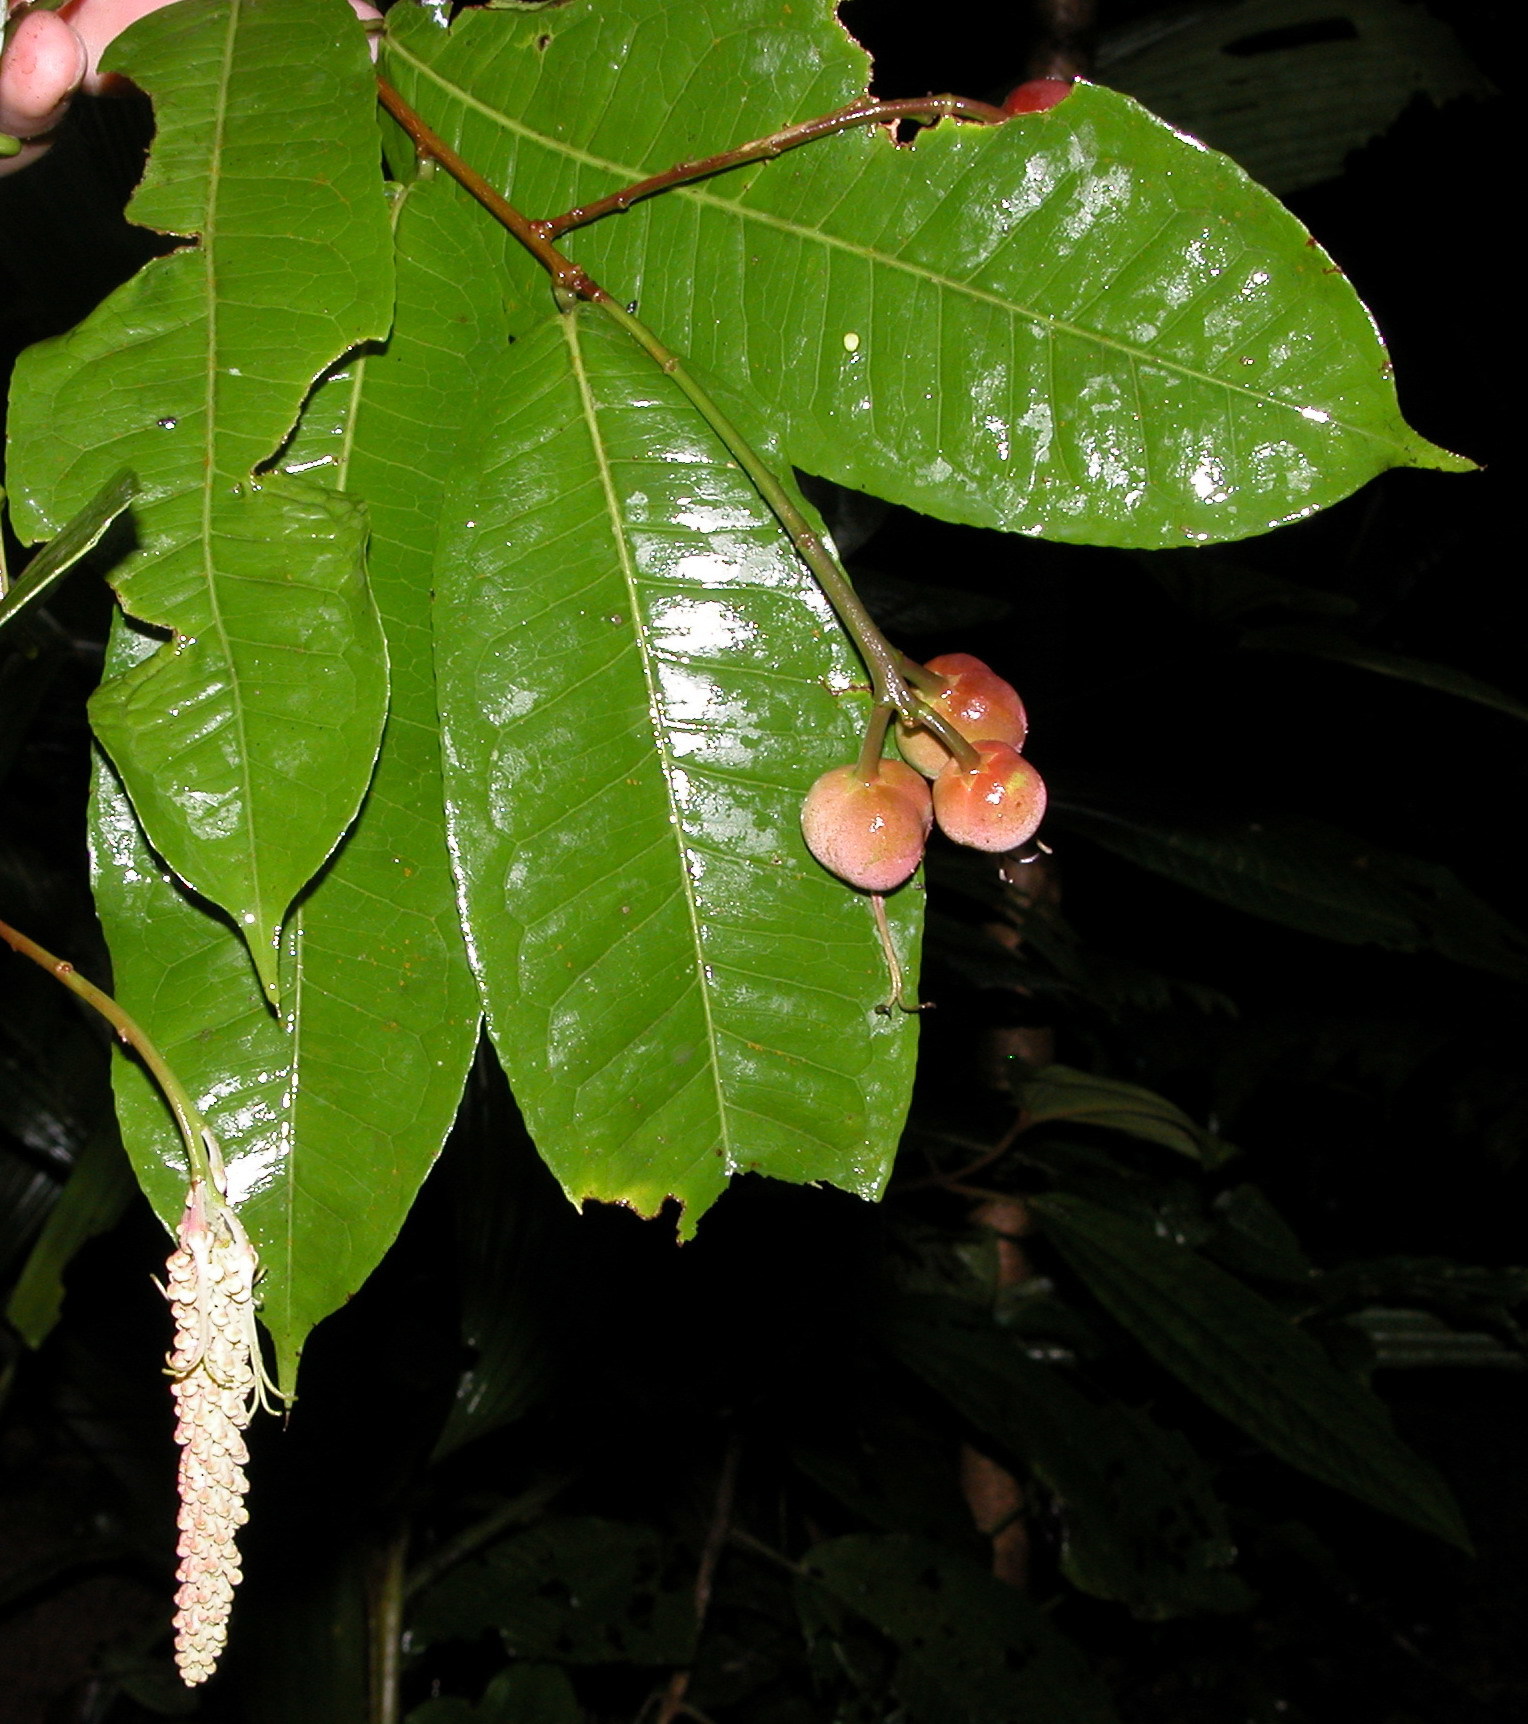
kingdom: Plantae
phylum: Tracheophyta
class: Magnoliopsida
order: Malpighiales
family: Euphorbiaceae
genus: Mabea
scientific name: Mabea occidentalis
